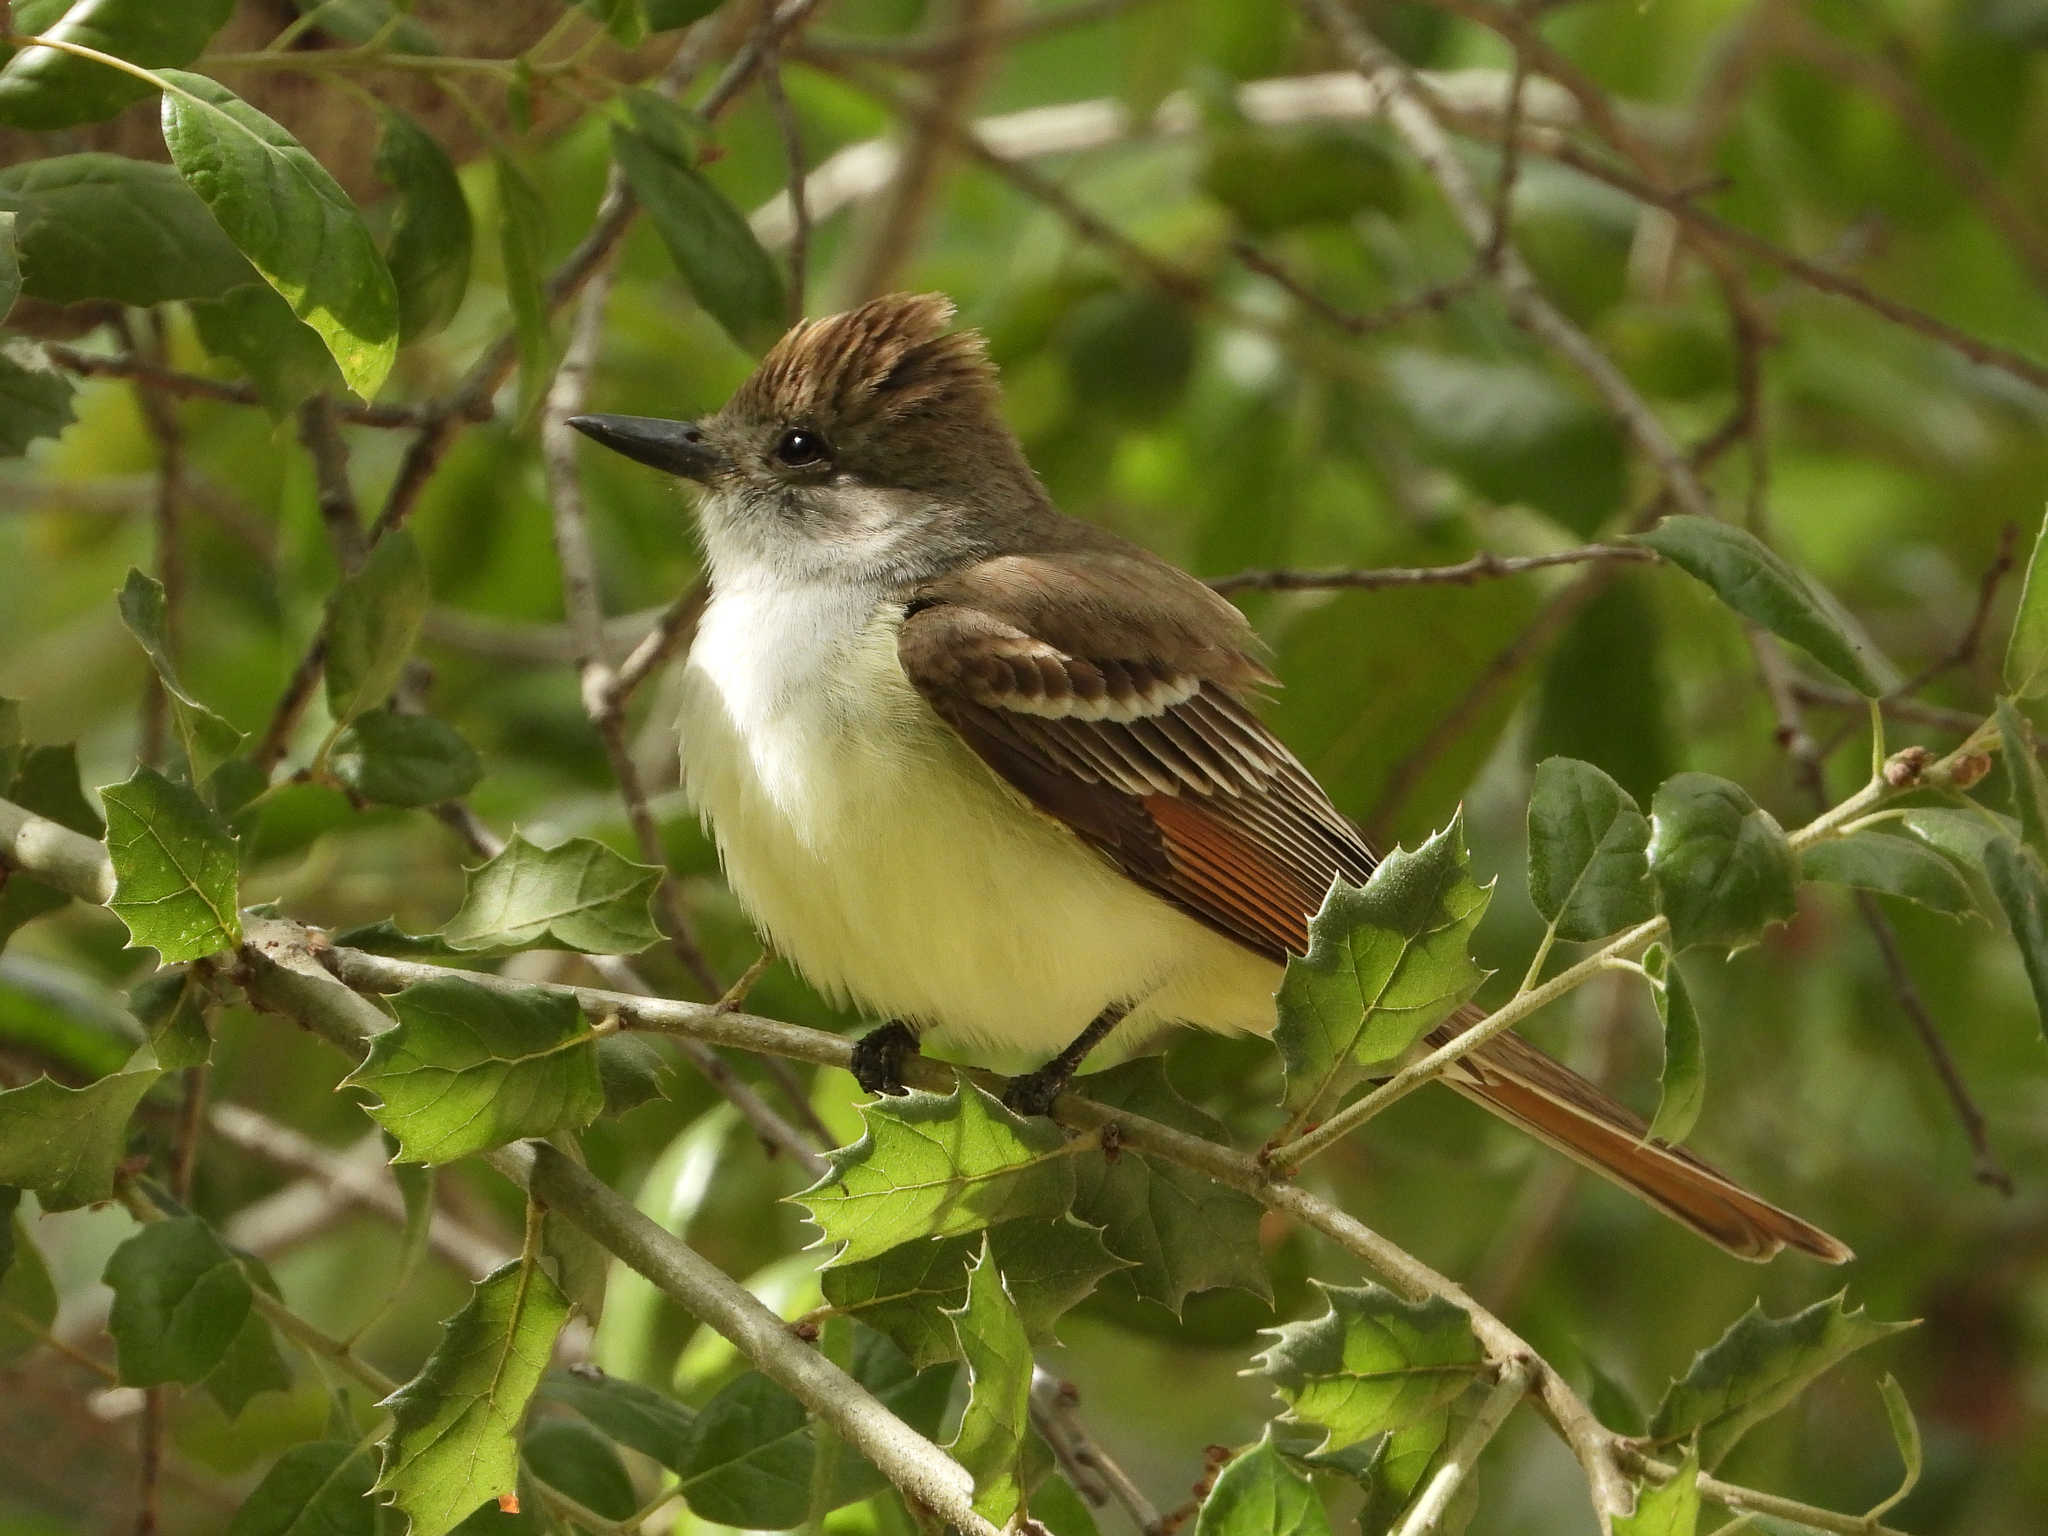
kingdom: Animalia
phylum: Chordata
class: Aves
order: Passeriformes
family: Tyrannidae
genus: Myiarchus
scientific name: Myiarchus cinerascens
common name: Ash-throated flycatcher
